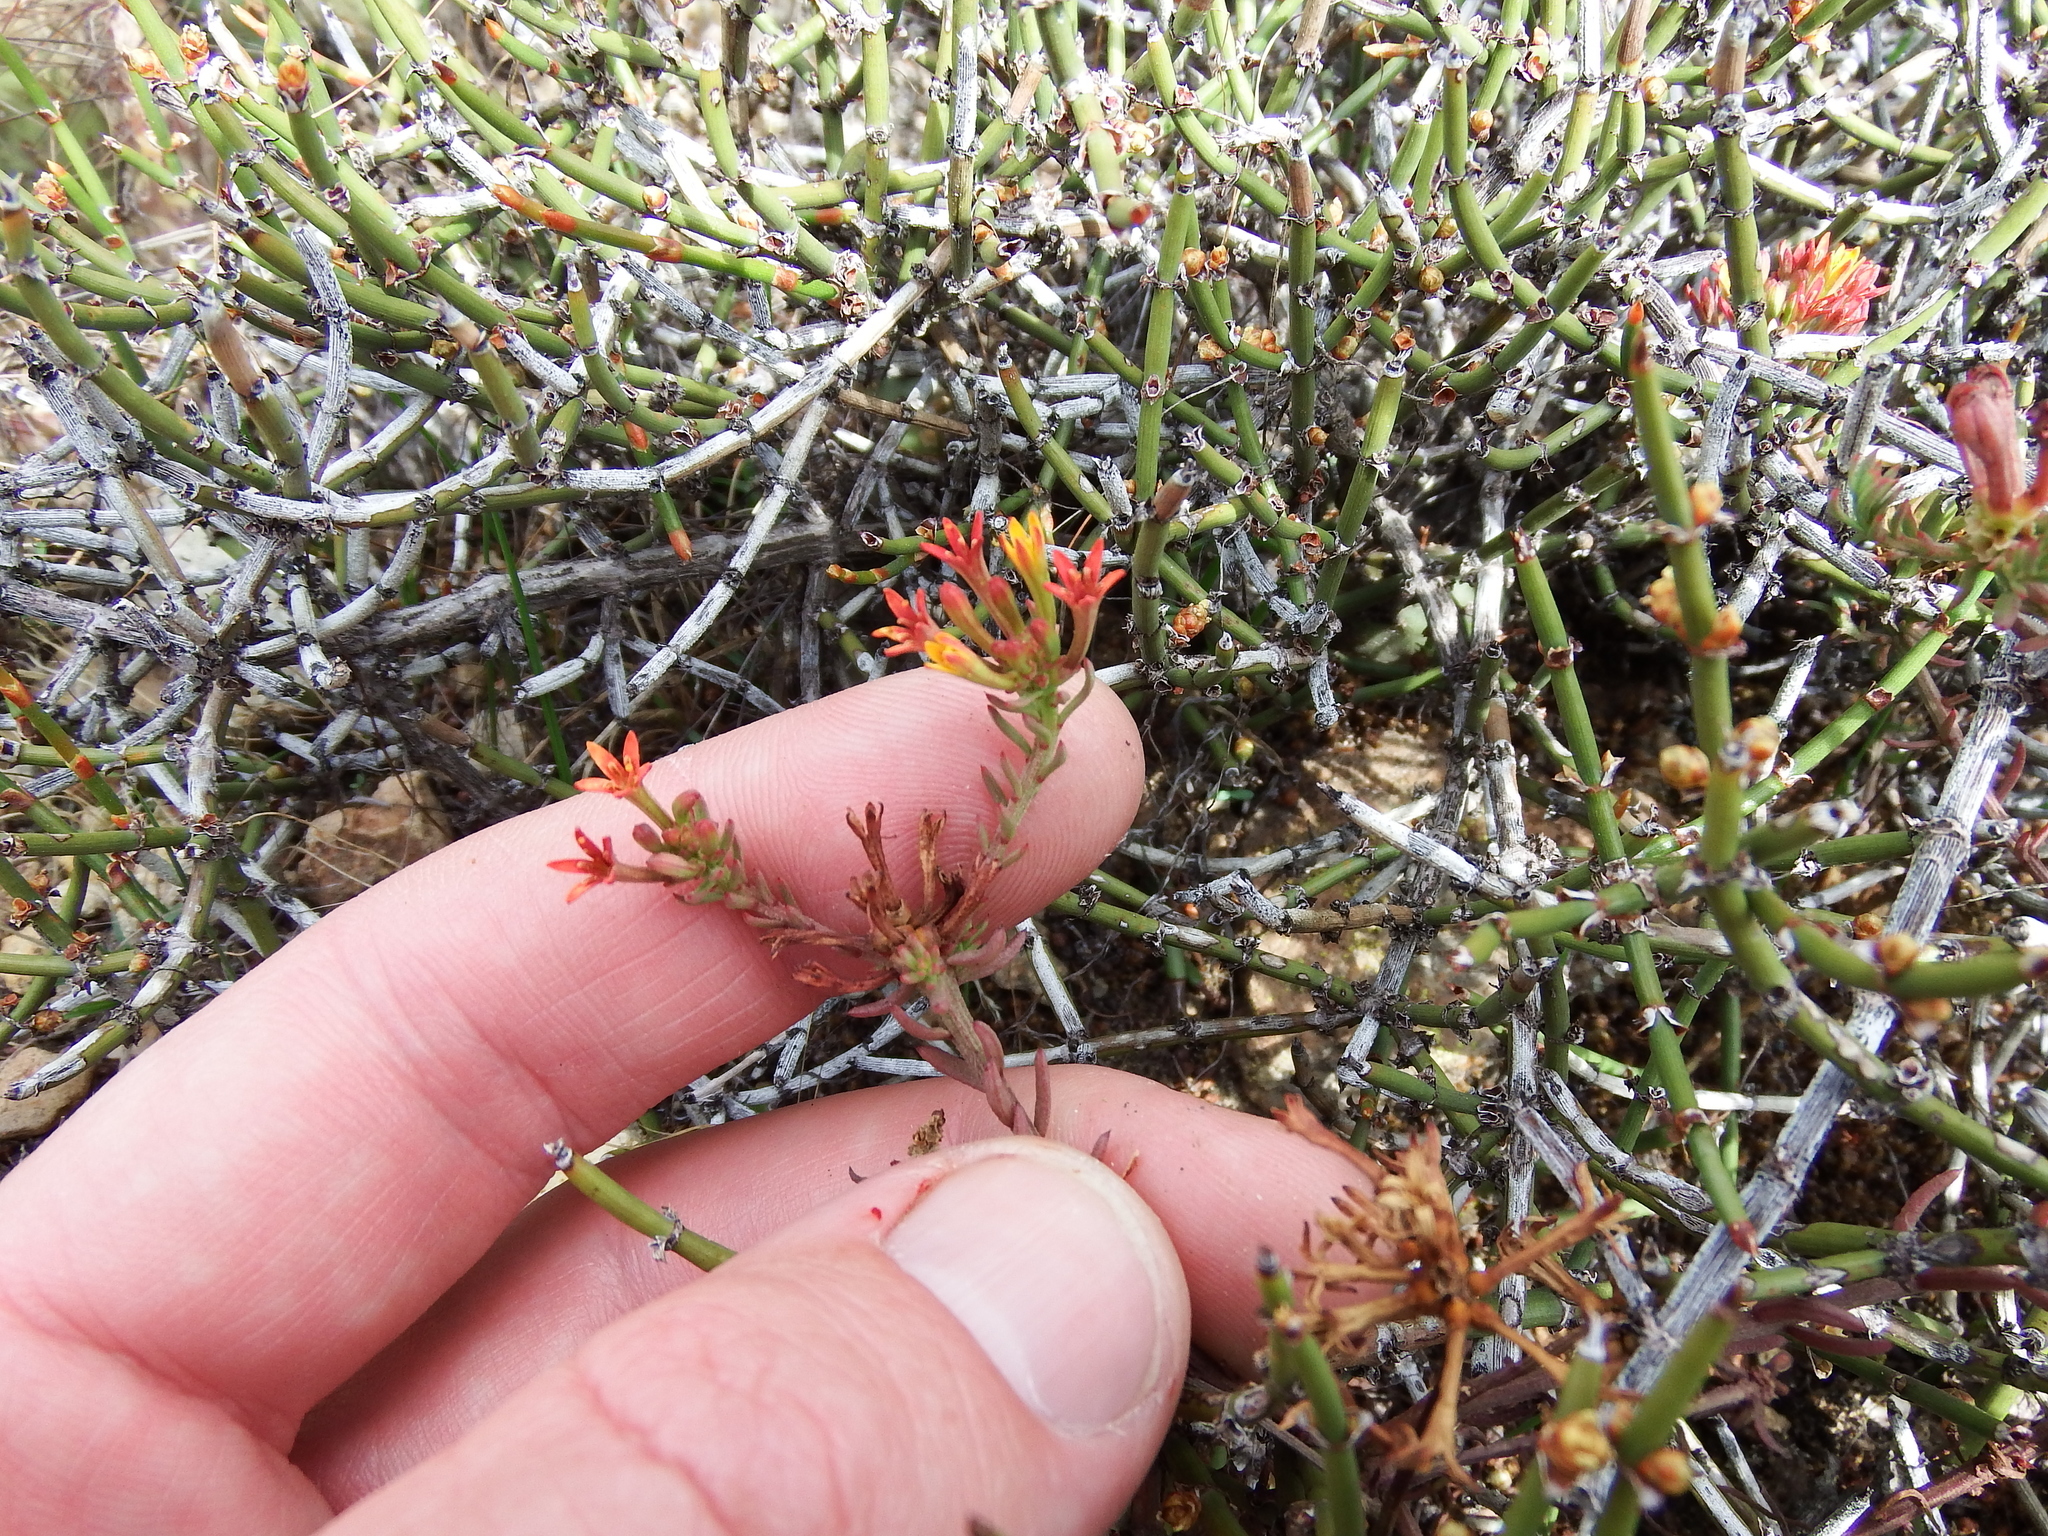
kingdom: Plantae
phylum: Tracheophyta
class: Magnoliopsida
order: Santalales
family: Schoepfiaceae
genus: Quinchamalium
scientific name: Quinchamalium chilense
